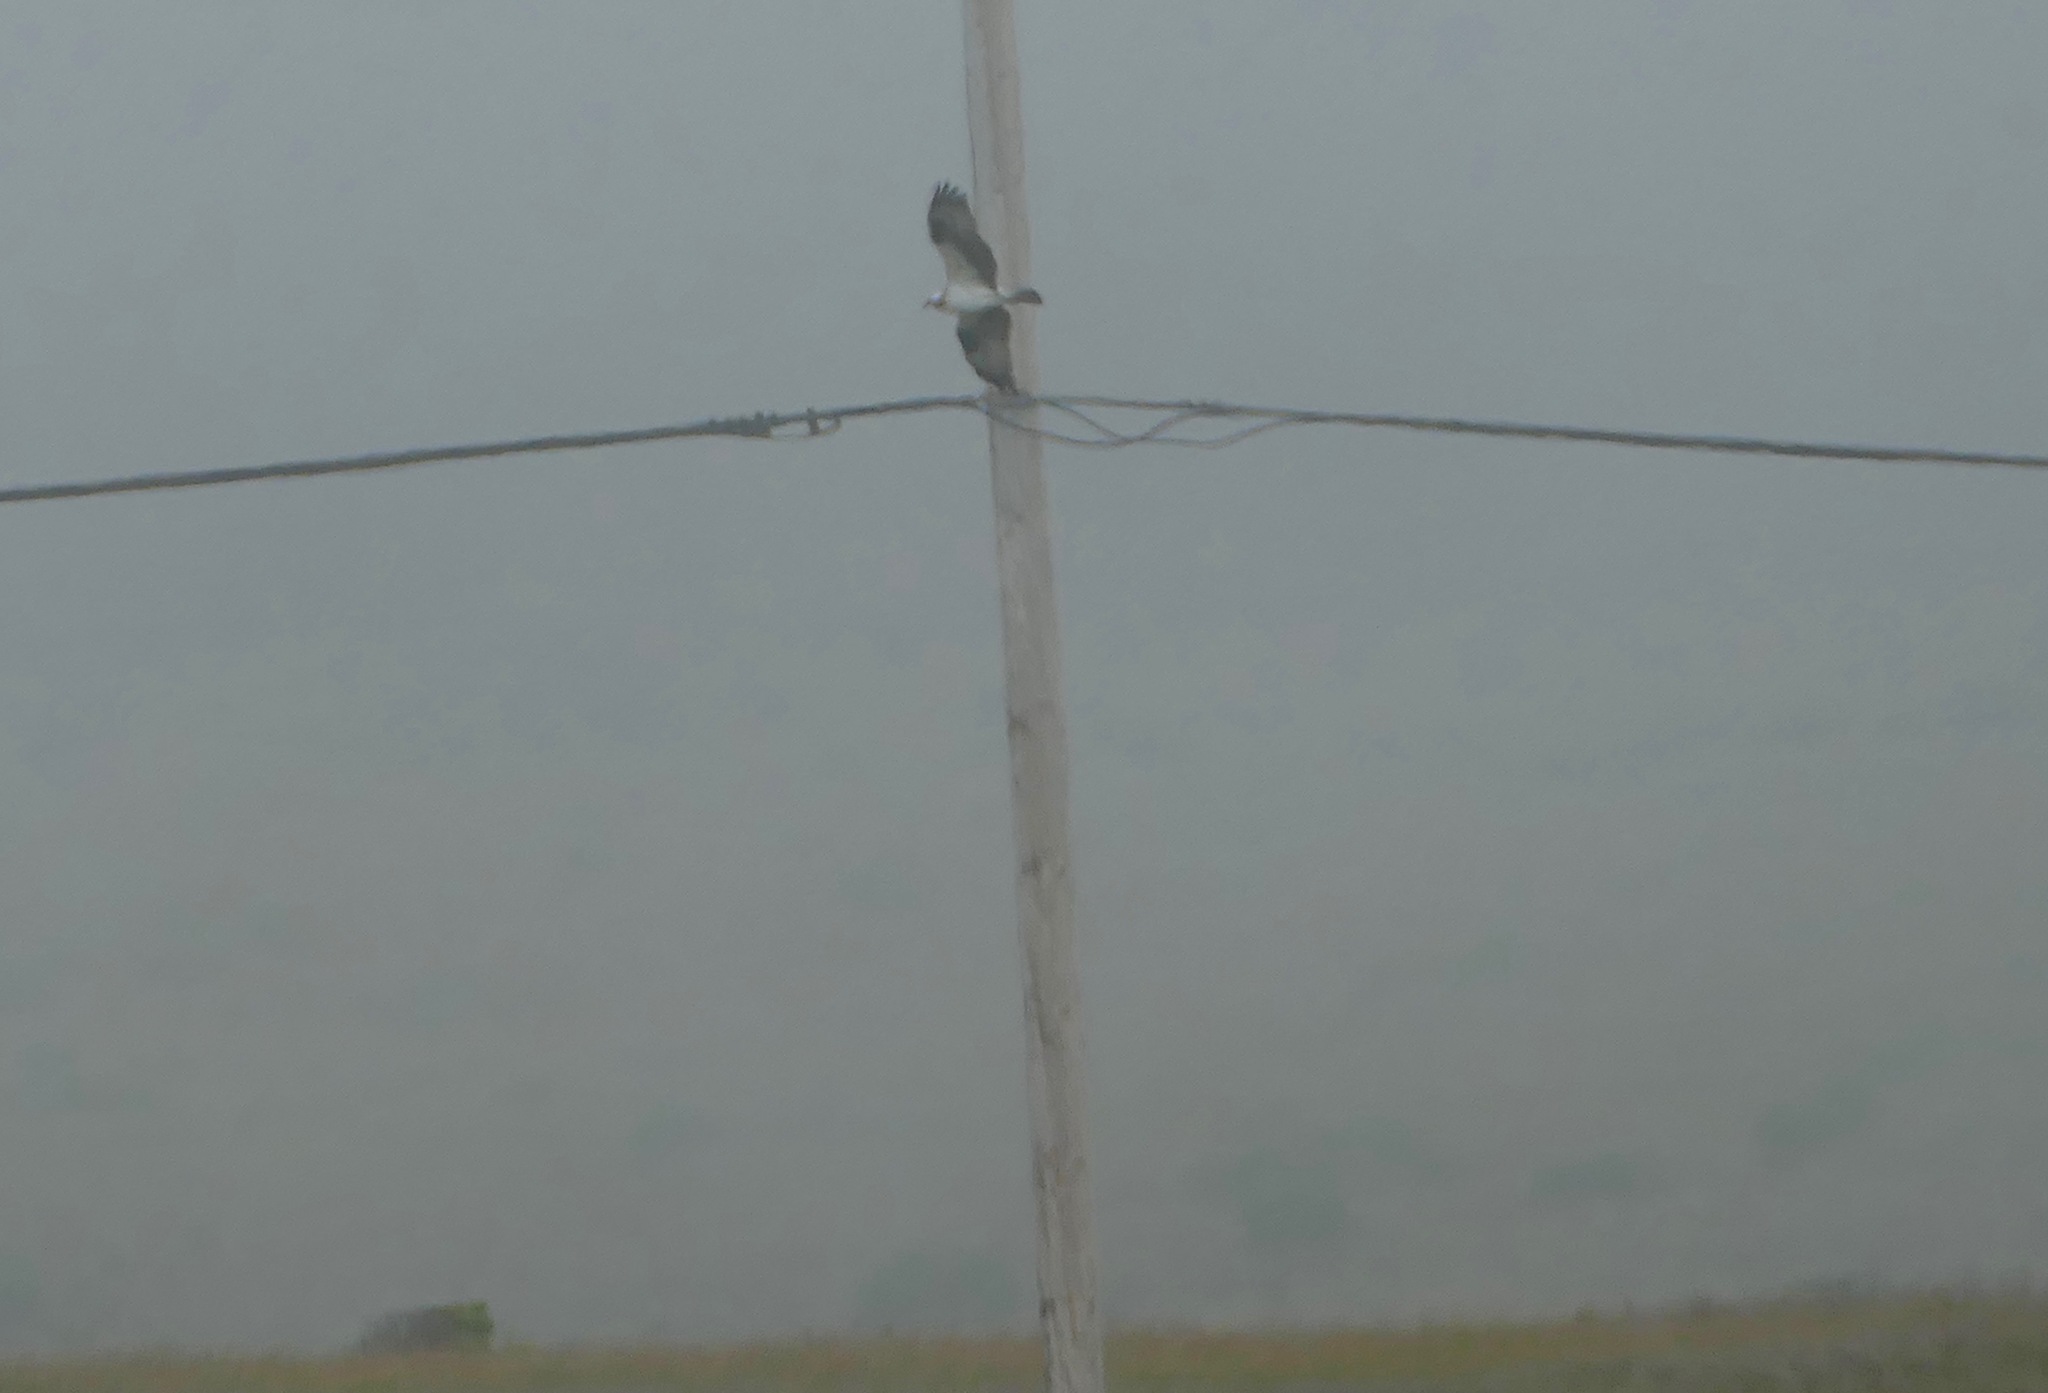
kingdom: Animalia
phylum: Chordata
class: Aves
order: Accipitriformes
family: Pandionidae
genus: Pandion
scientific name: Pandion haliaetus
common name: Osprey
